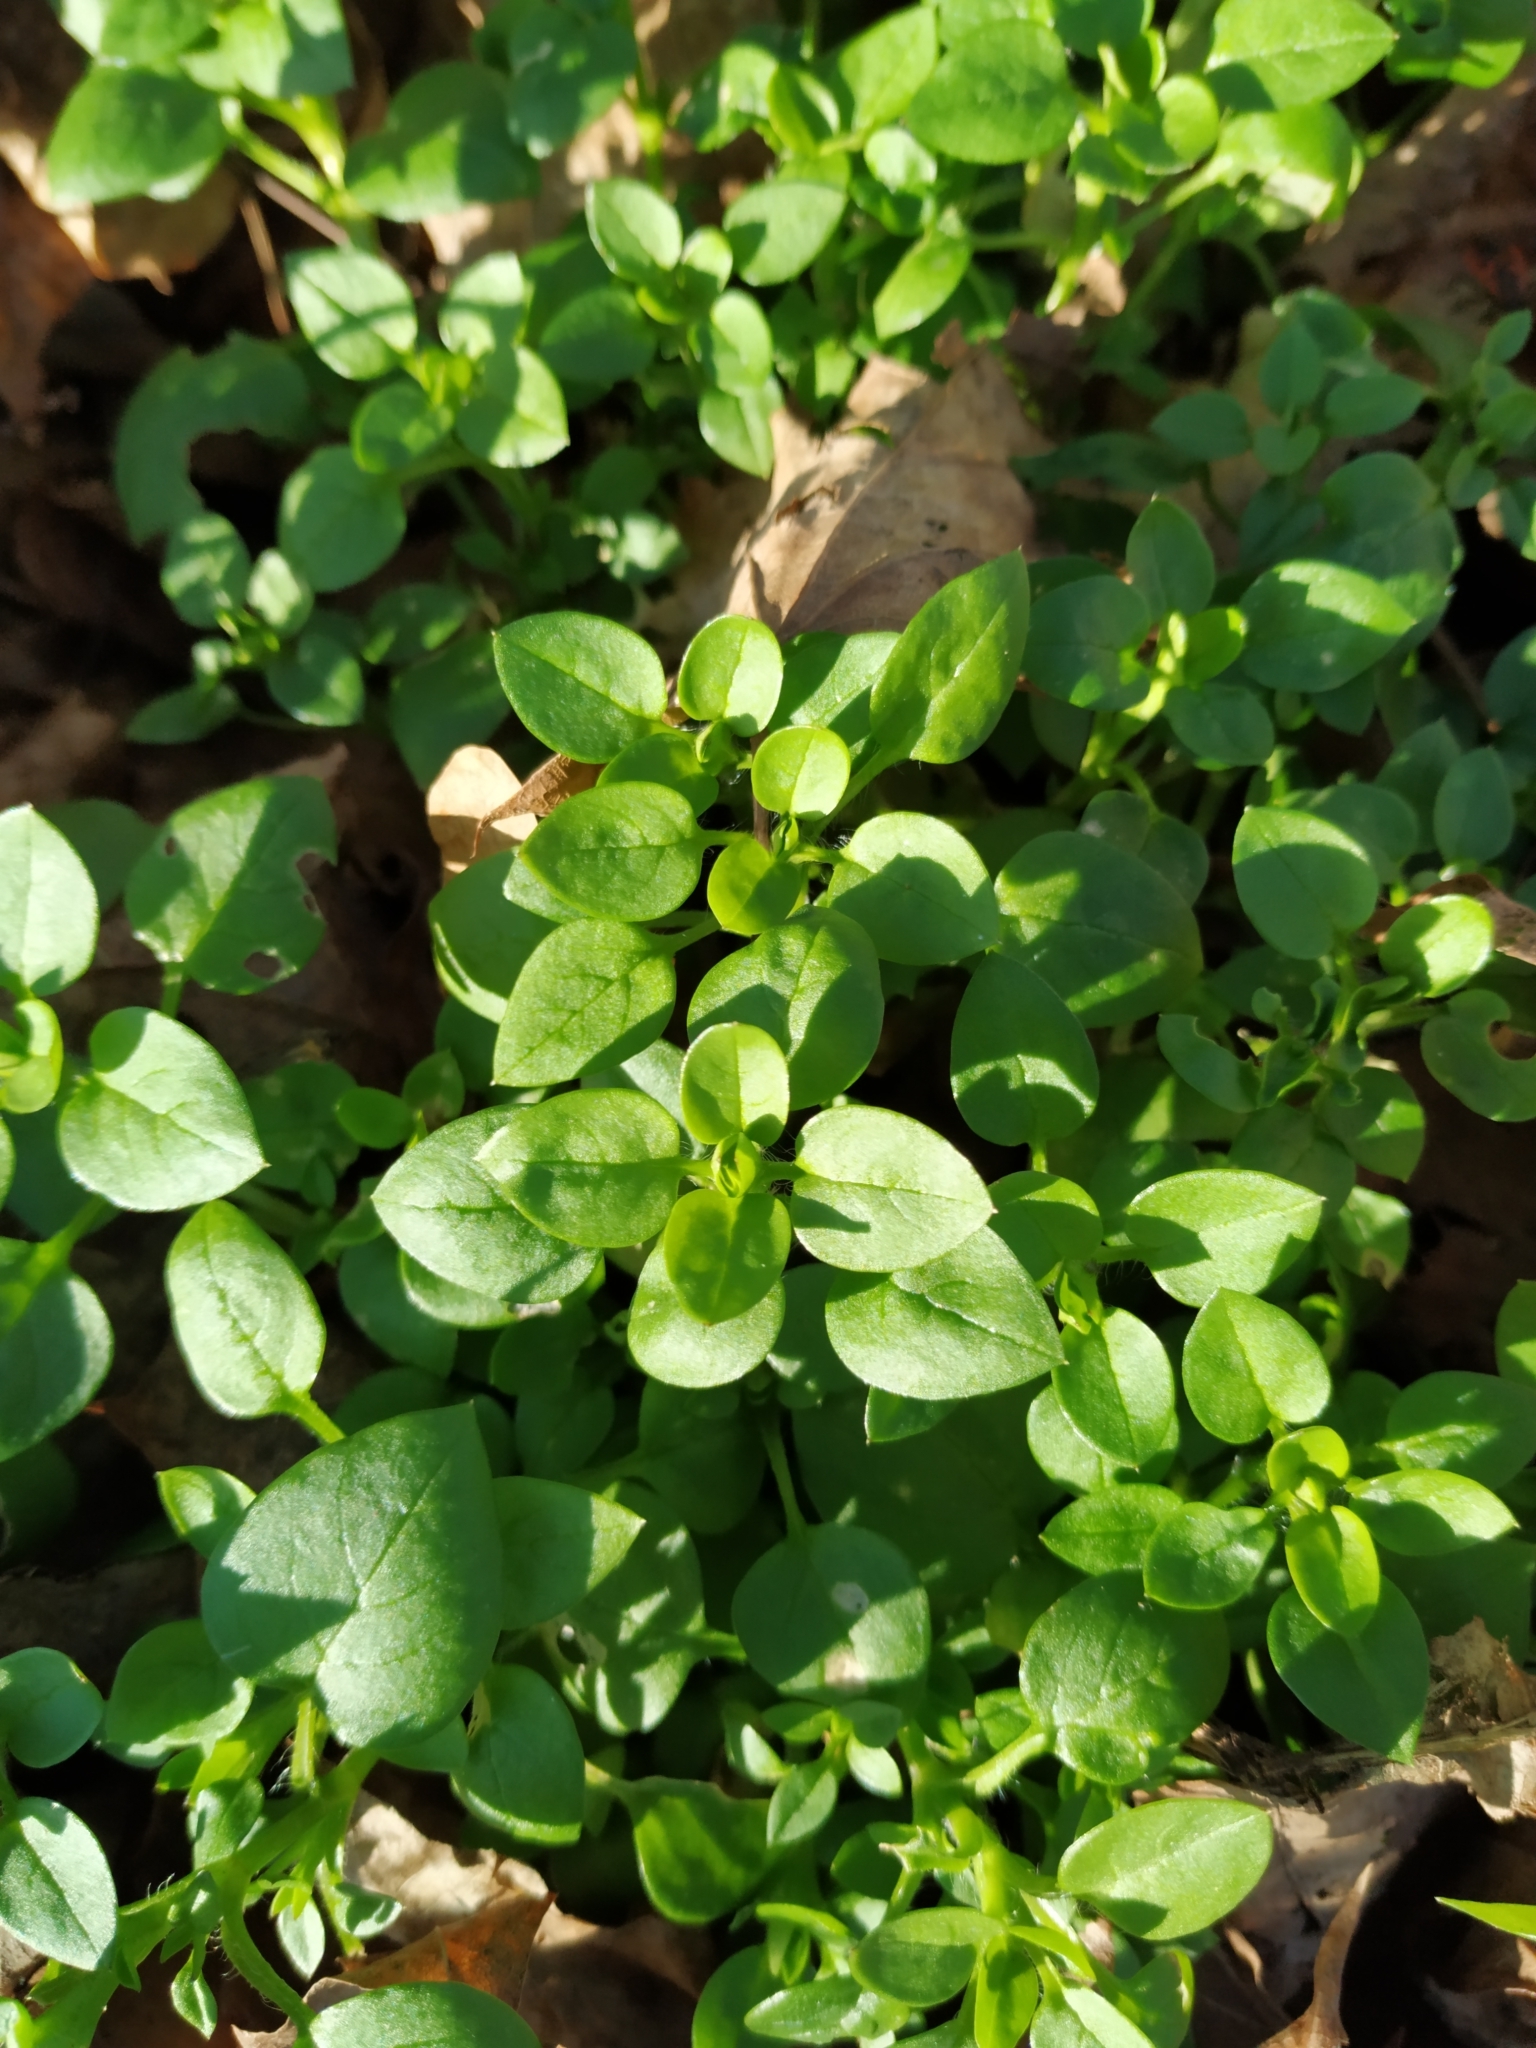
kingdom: Plantae
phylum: Tracheophyta
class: Magnoliopsida
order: Caryophyllales
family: Caryophyllaceae
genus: Stellaria
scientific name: Stellaria media
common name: Common chickweed
